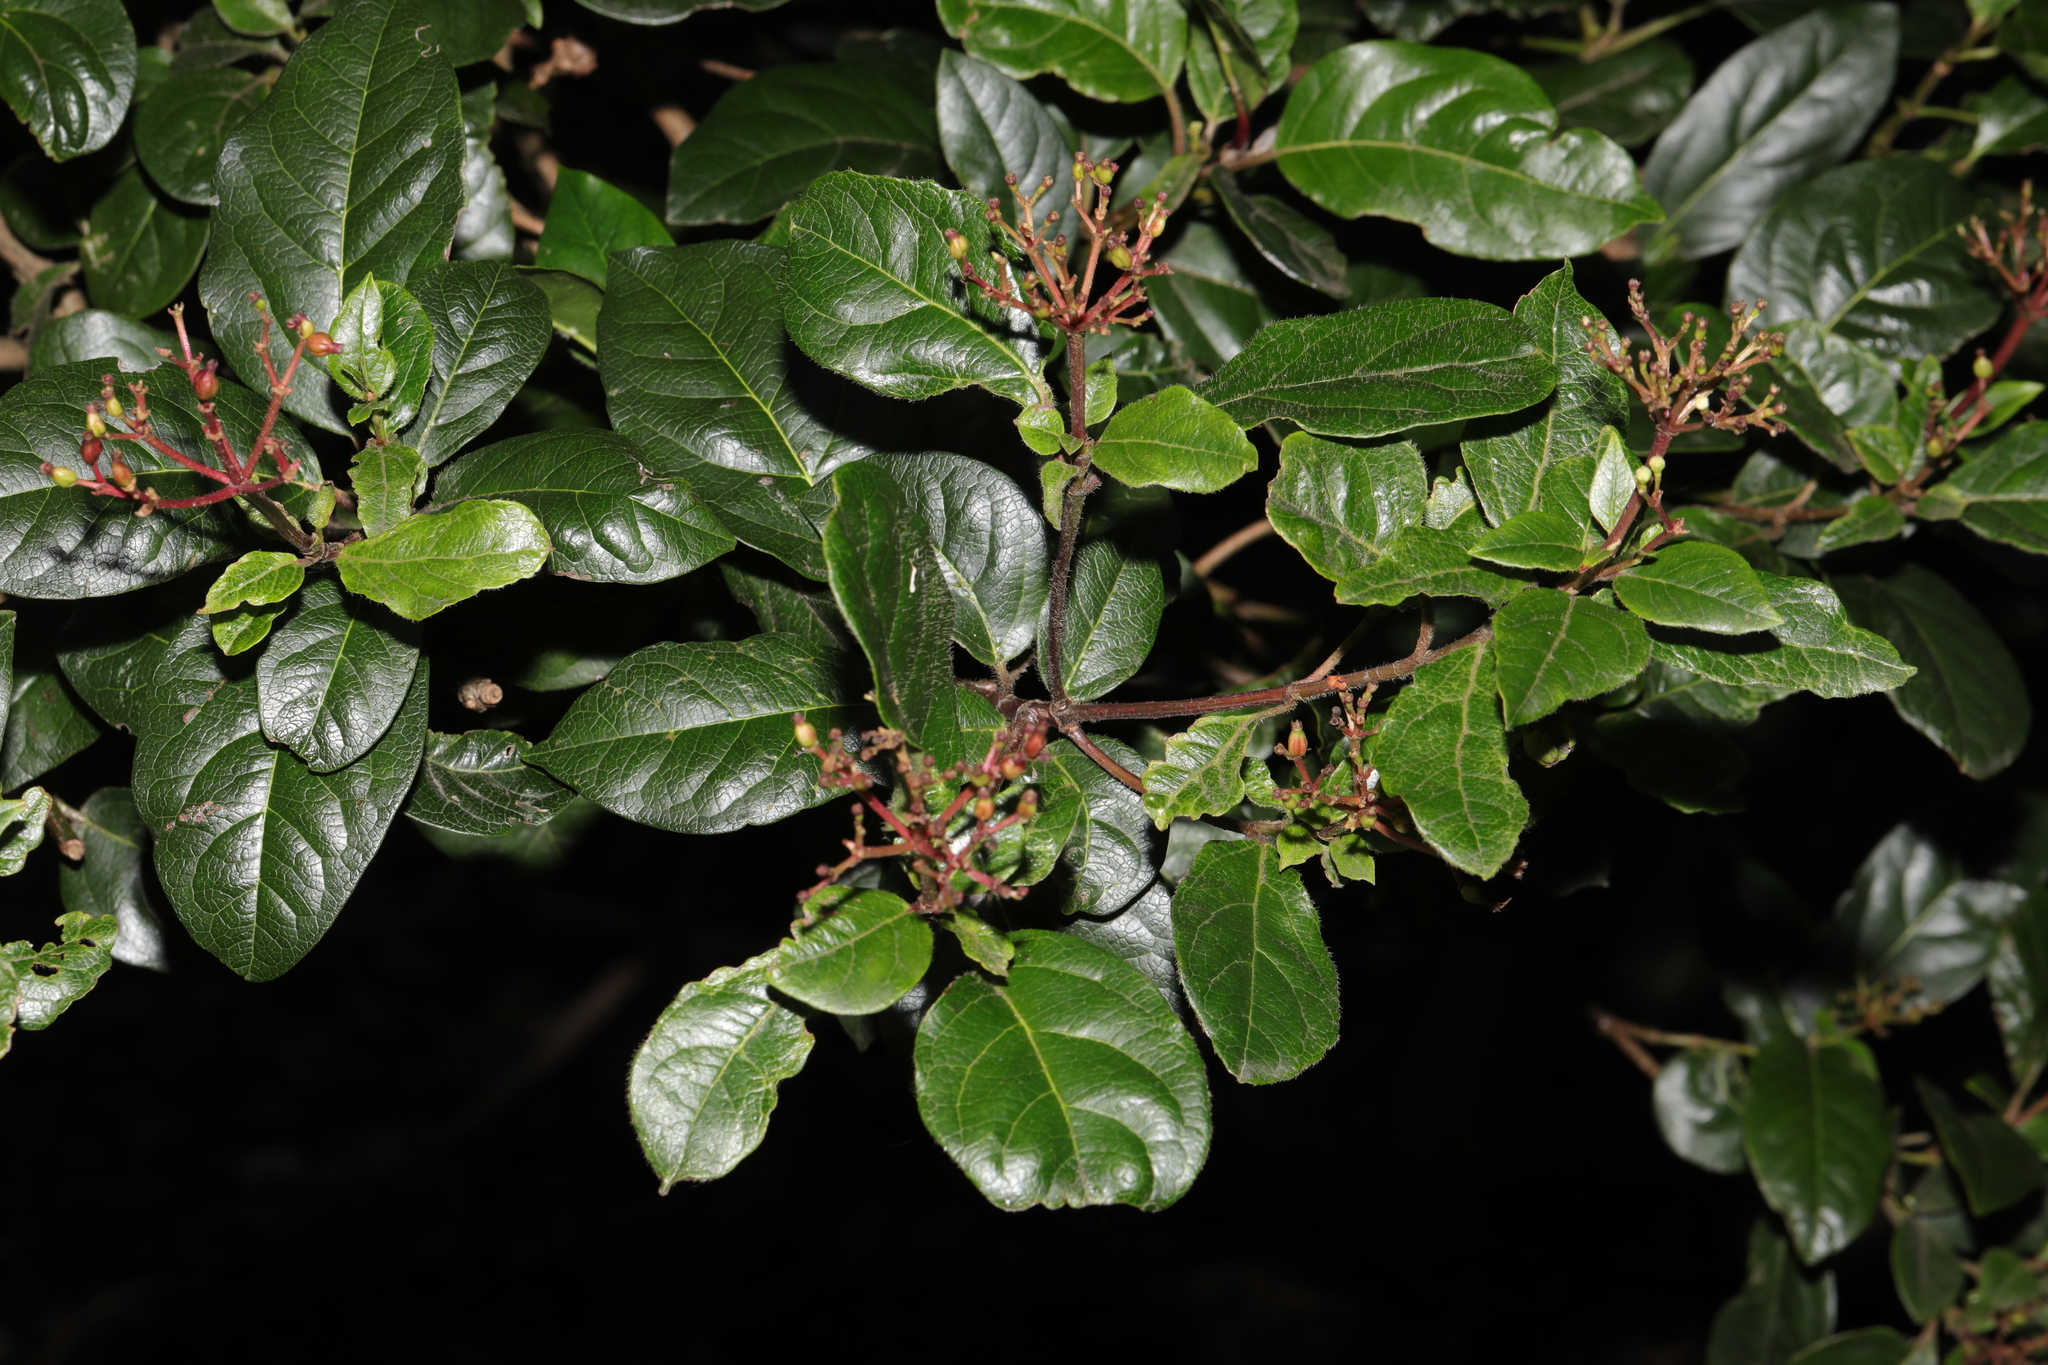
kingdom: Plantae
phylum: Tracheophyta
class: Magnoliopsida
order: Dipsacales
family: Viburnaceae
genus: Viburnum
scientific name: Viburnum tinus
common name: Laurustinus
